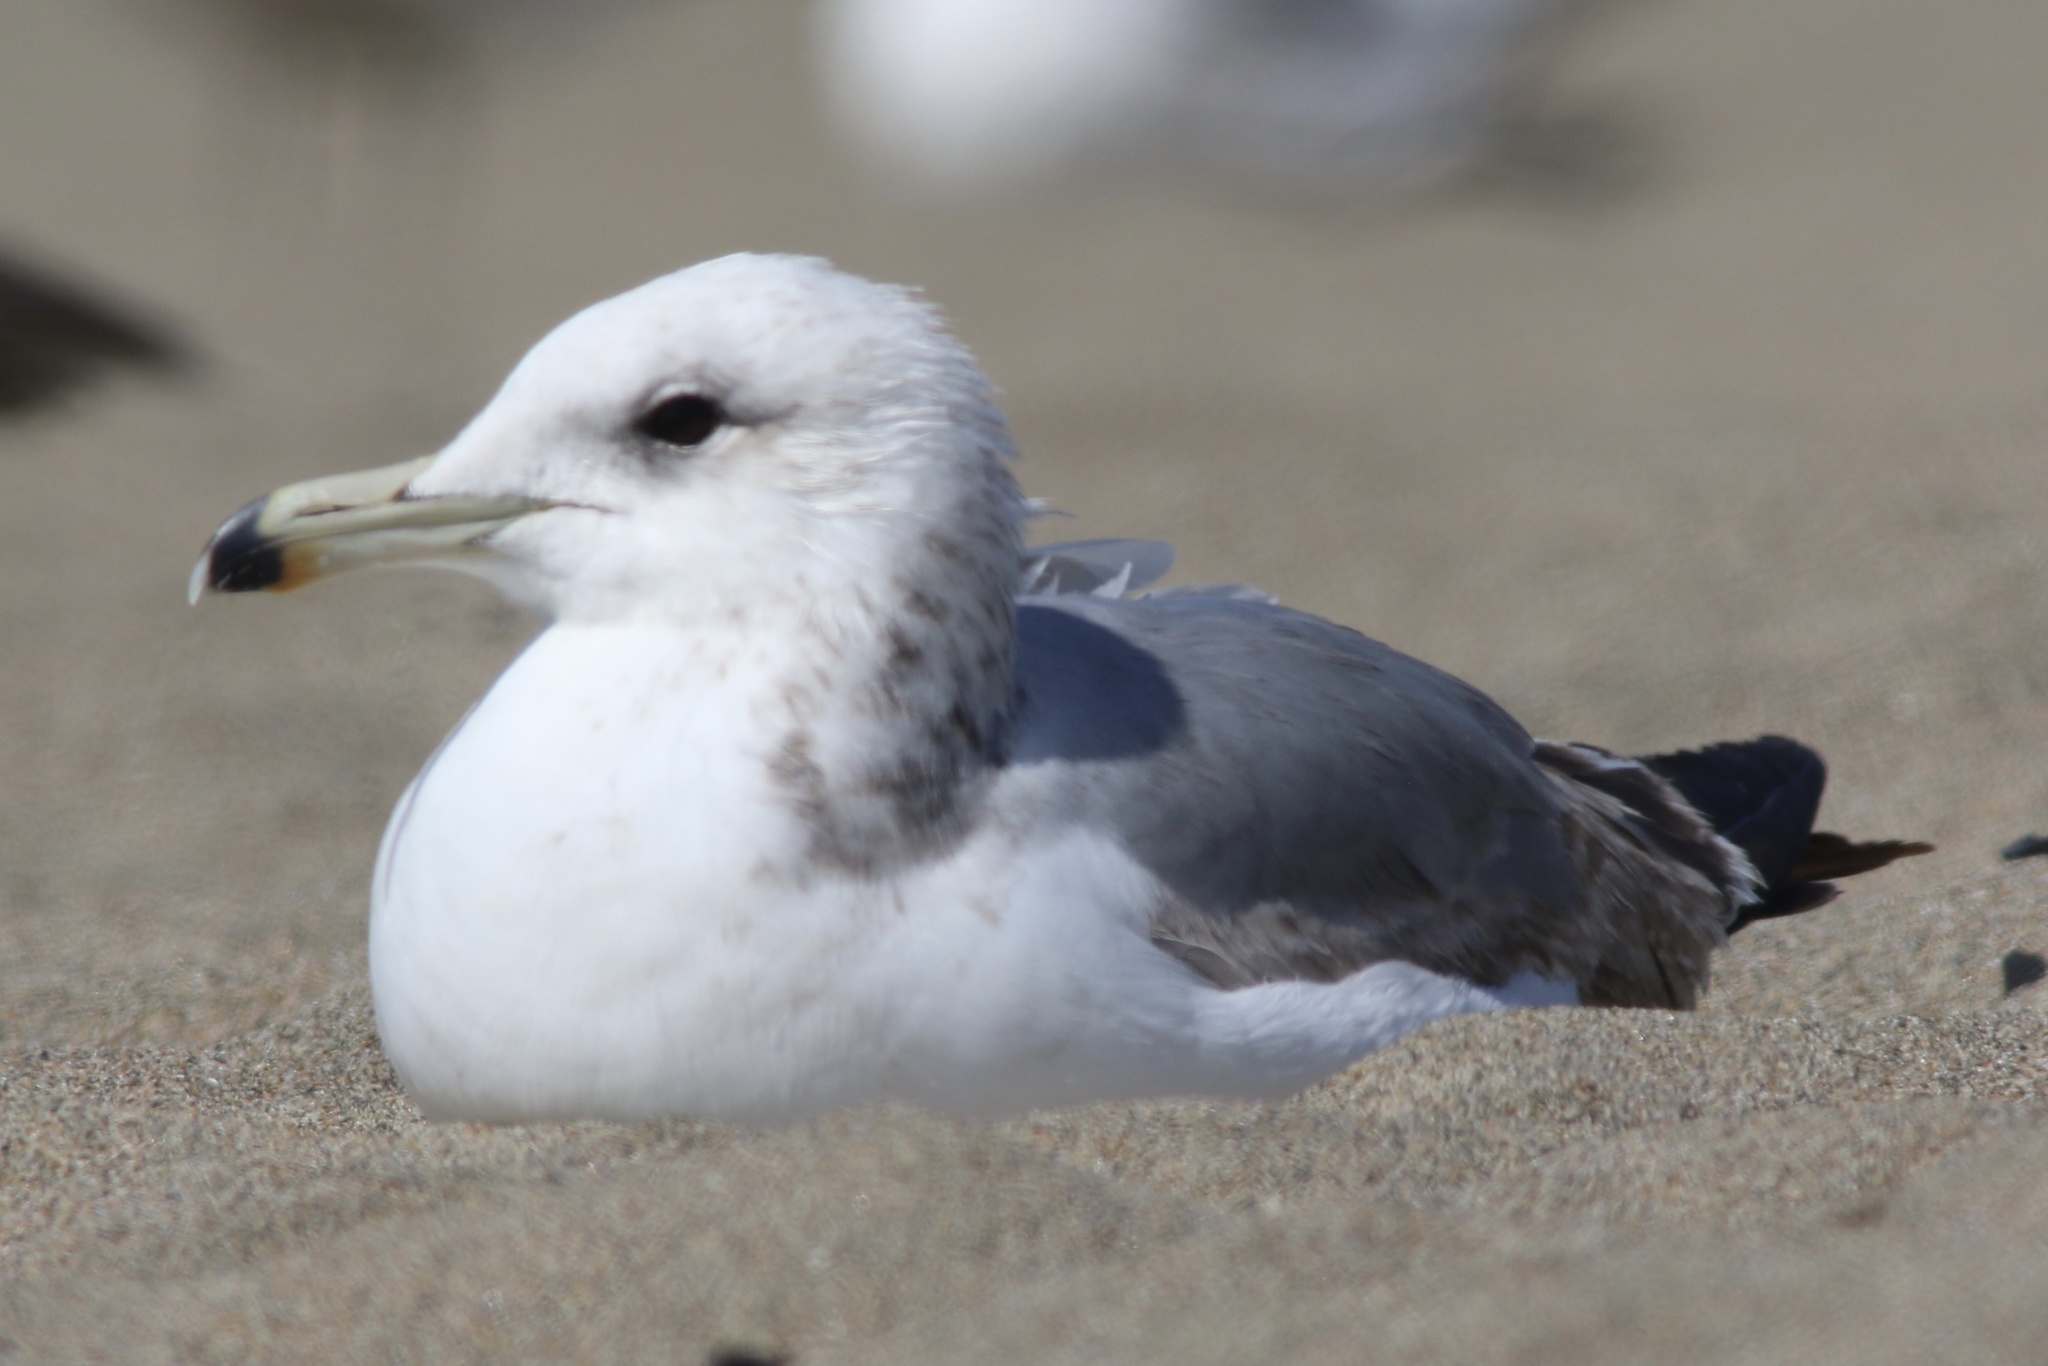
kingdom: Animalia
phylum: Chordata
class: Aves
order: Charadriiformes
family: Laridae
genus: Larus
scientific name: Larus californicus
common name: California gull
